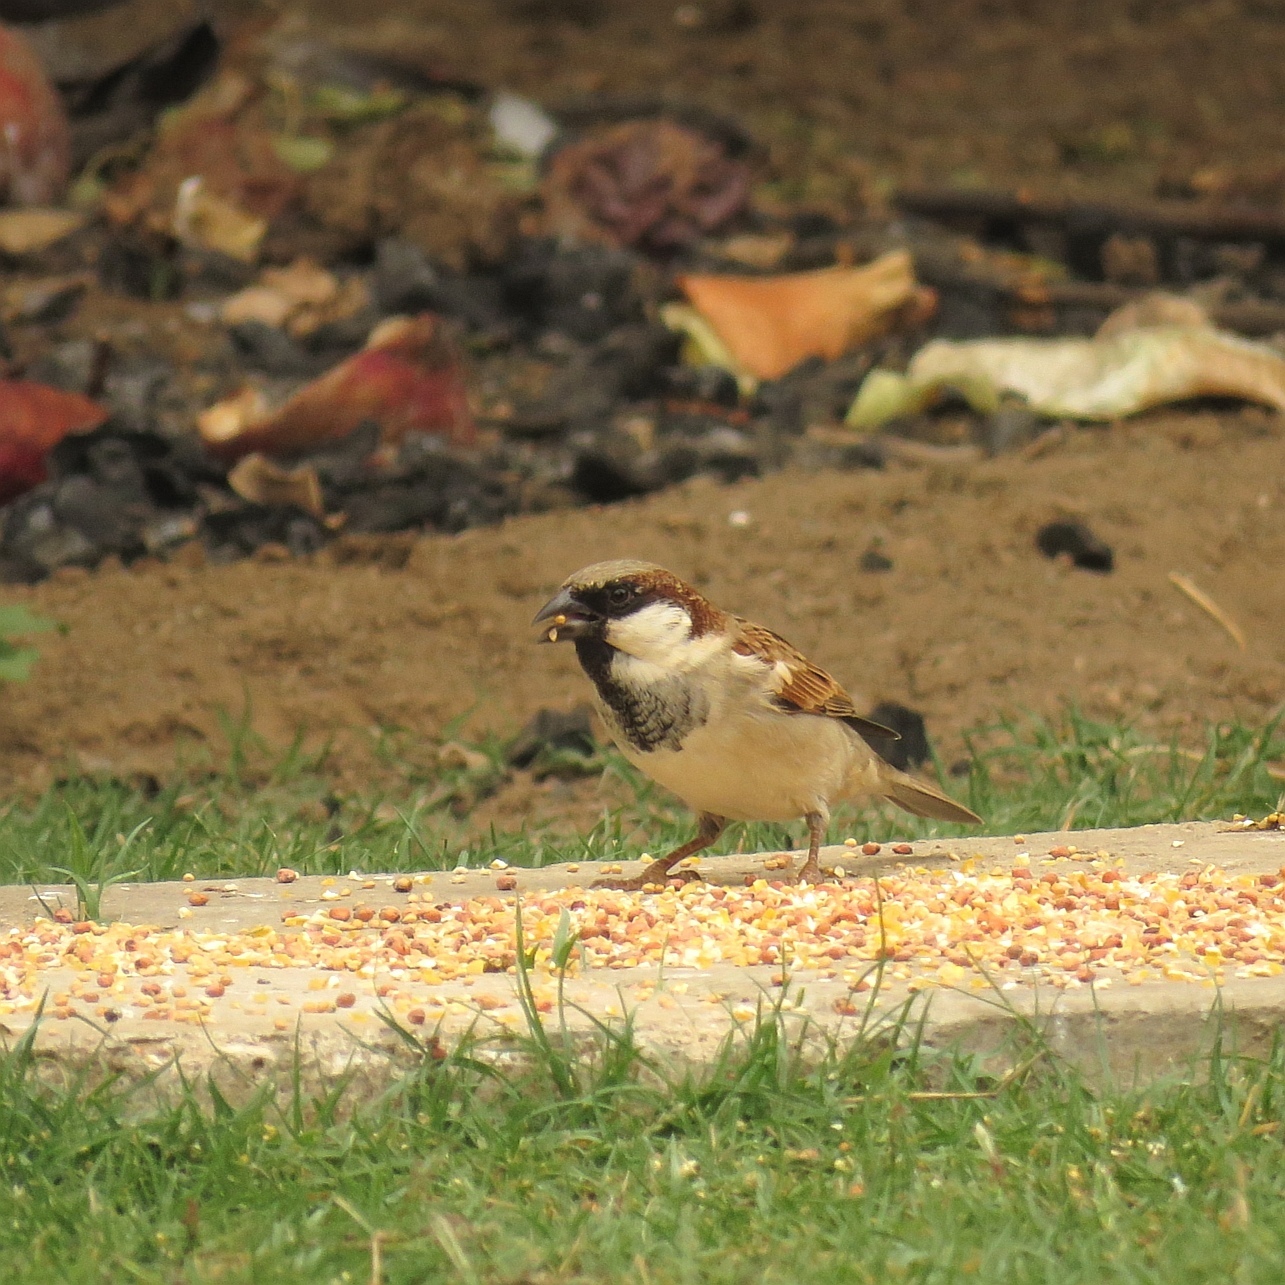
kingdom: Animalia
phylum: Chordata
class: Aves
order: Passeriformes
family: Passeridae
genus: Passer
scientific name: Passer domesticus
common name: House sparrow
